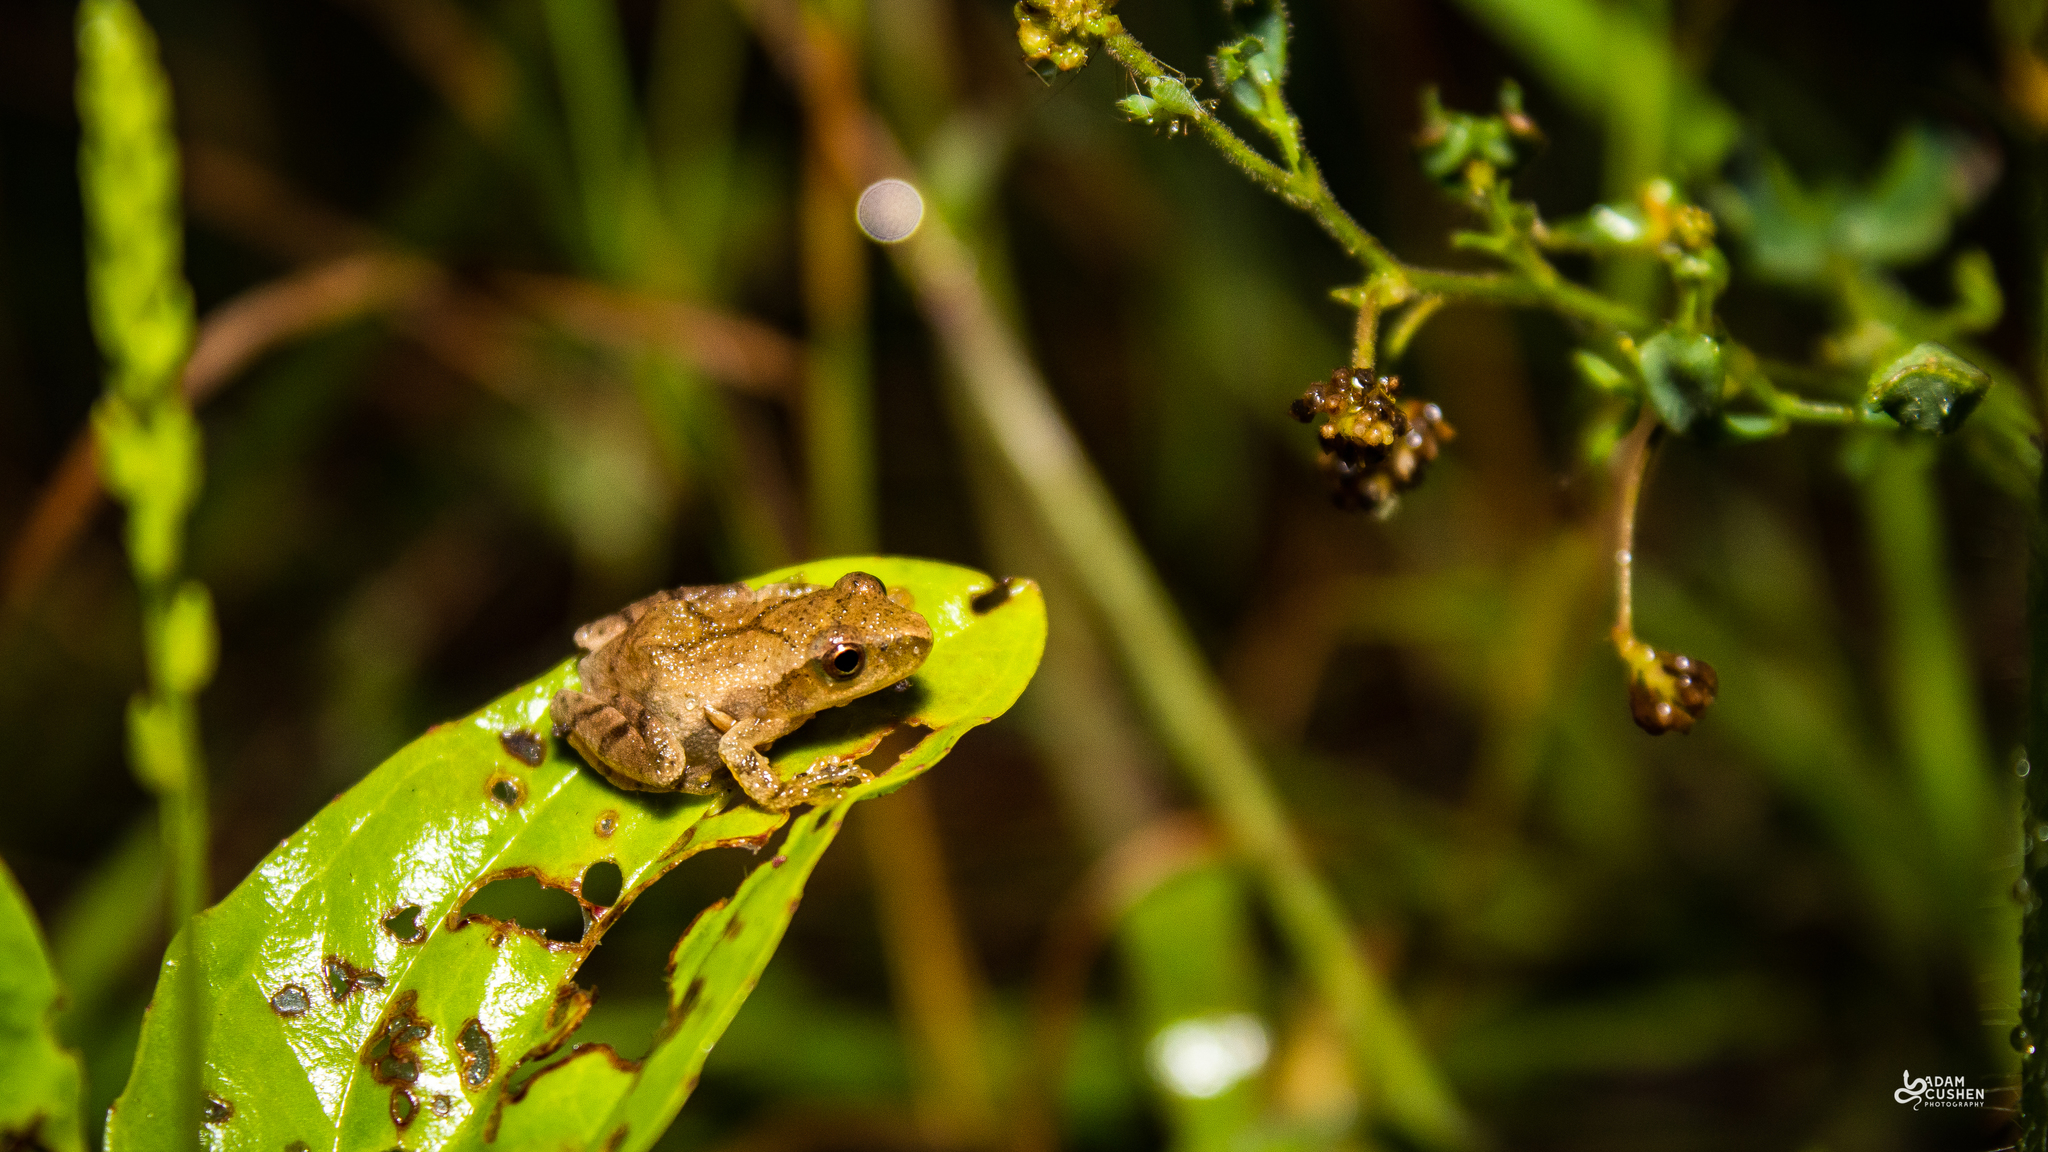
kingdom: Animalia
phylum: Chordata
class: Amphibia
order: Anura
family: Hylidae
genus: Pseudacris
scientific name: Pseudacris crucifer
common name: Spring peeper
